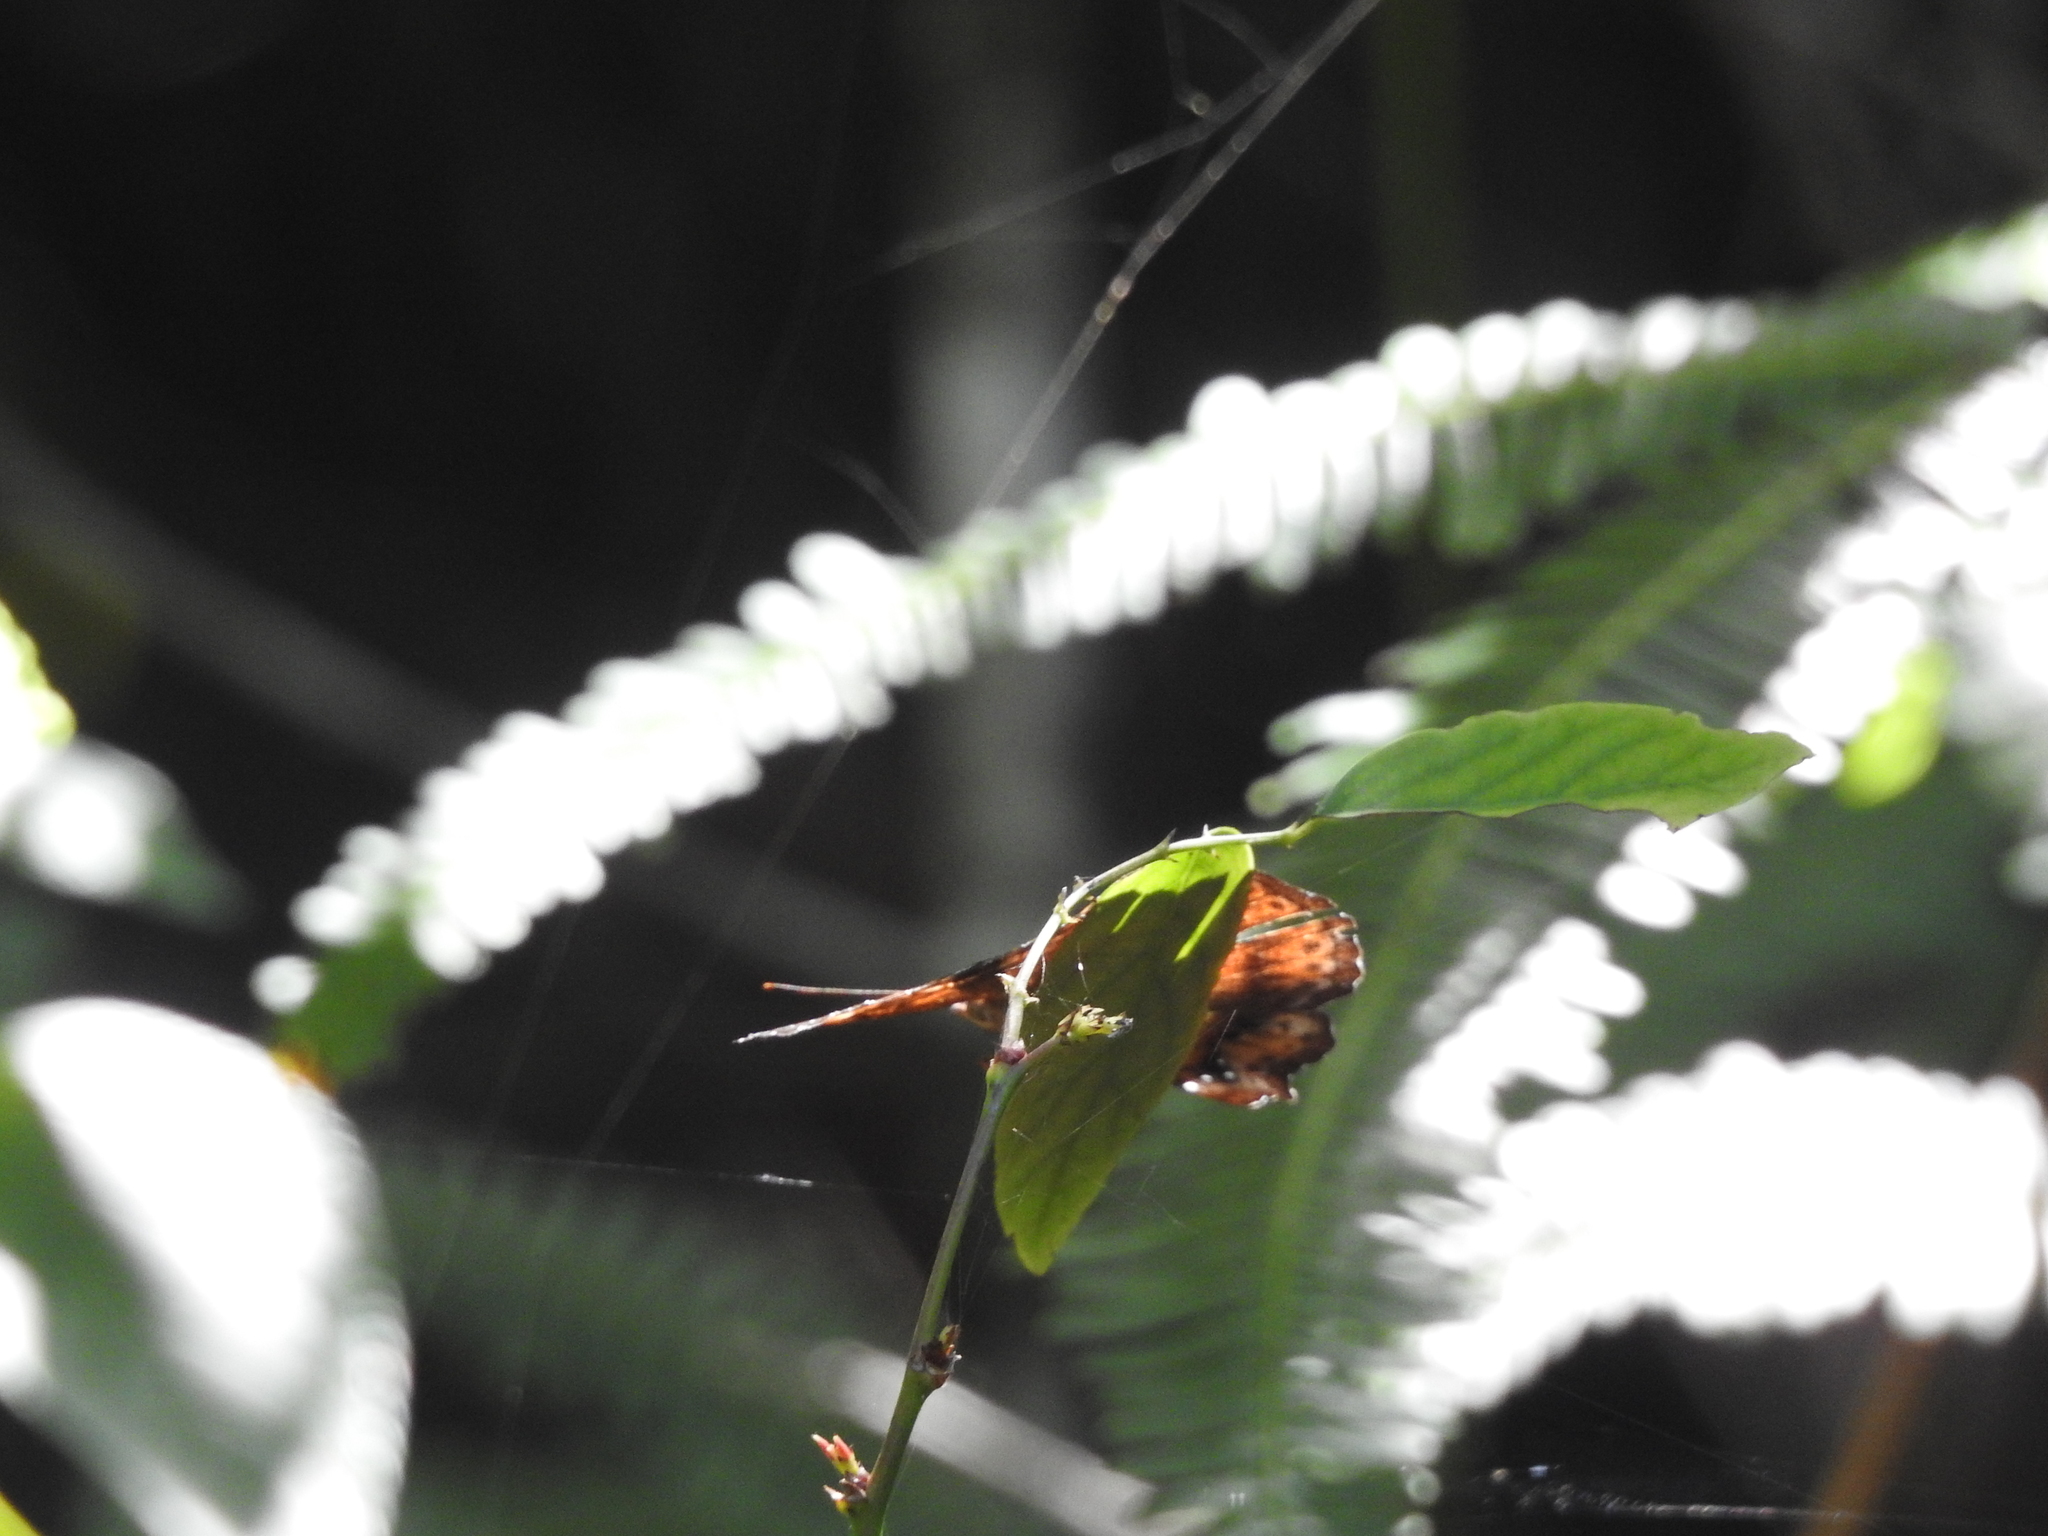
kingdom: Animalia
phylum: Arthropoda
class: Insecta
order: Lepidoptera
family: Nymphalidae
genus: Apatura
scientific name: Apatura Rohana spec
